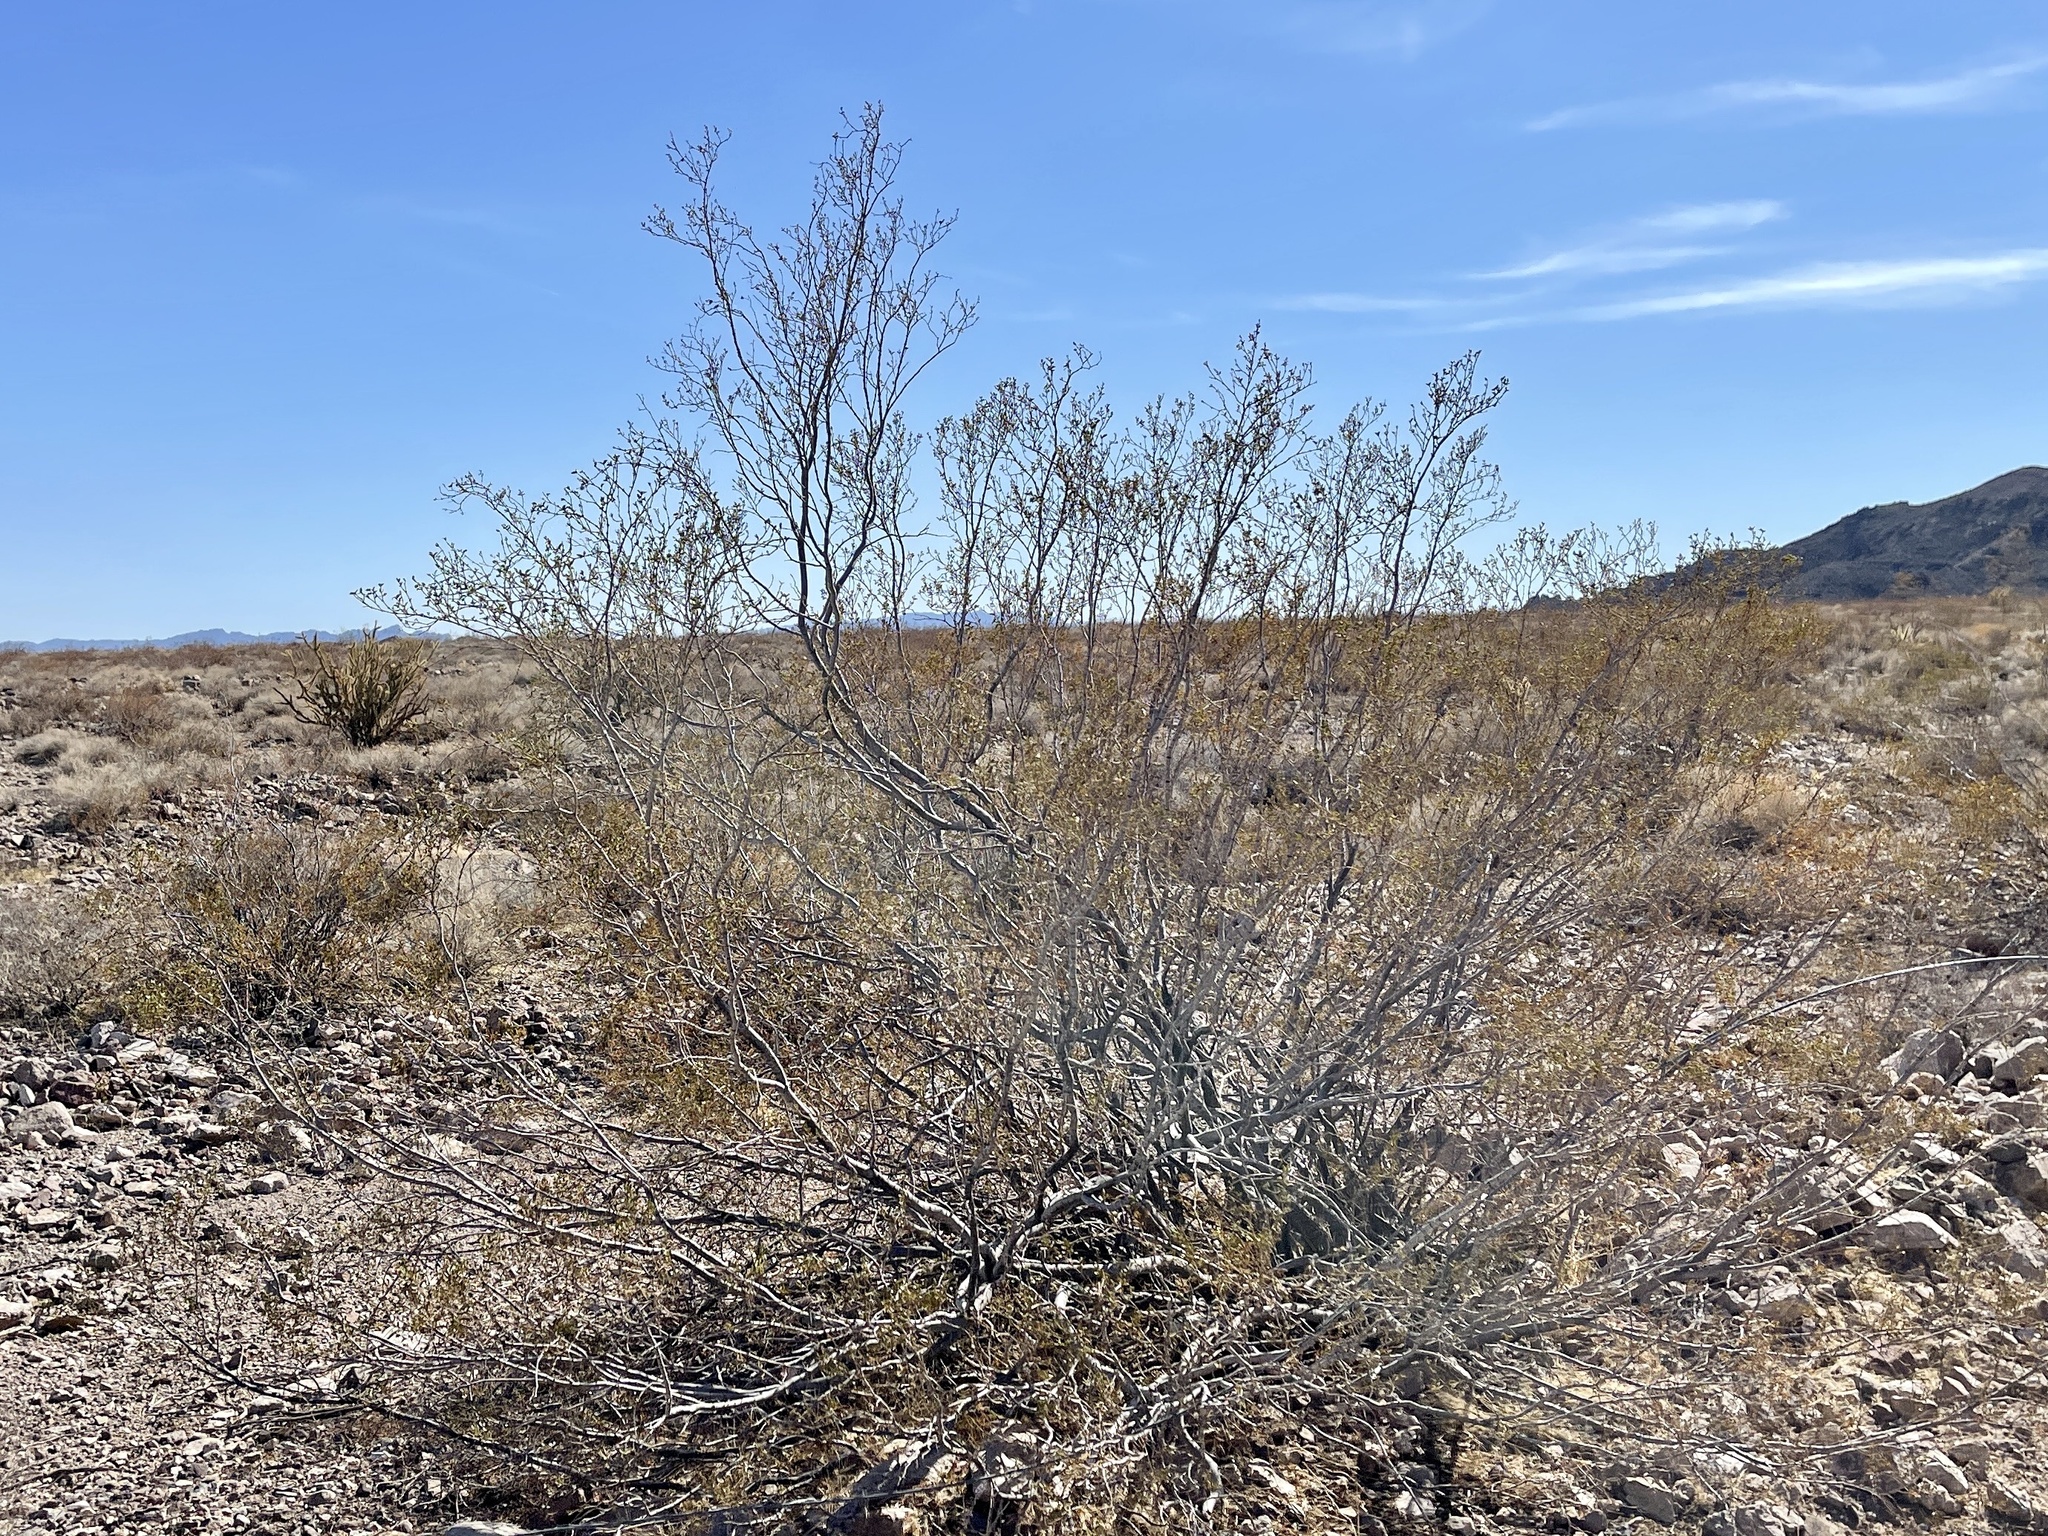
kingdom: Plantae
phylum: Tracheophyta
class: Magnoliopsida
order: Zygophyllales
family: Zygophyllaceae
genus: Larrea
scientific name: Larrea tridentata
